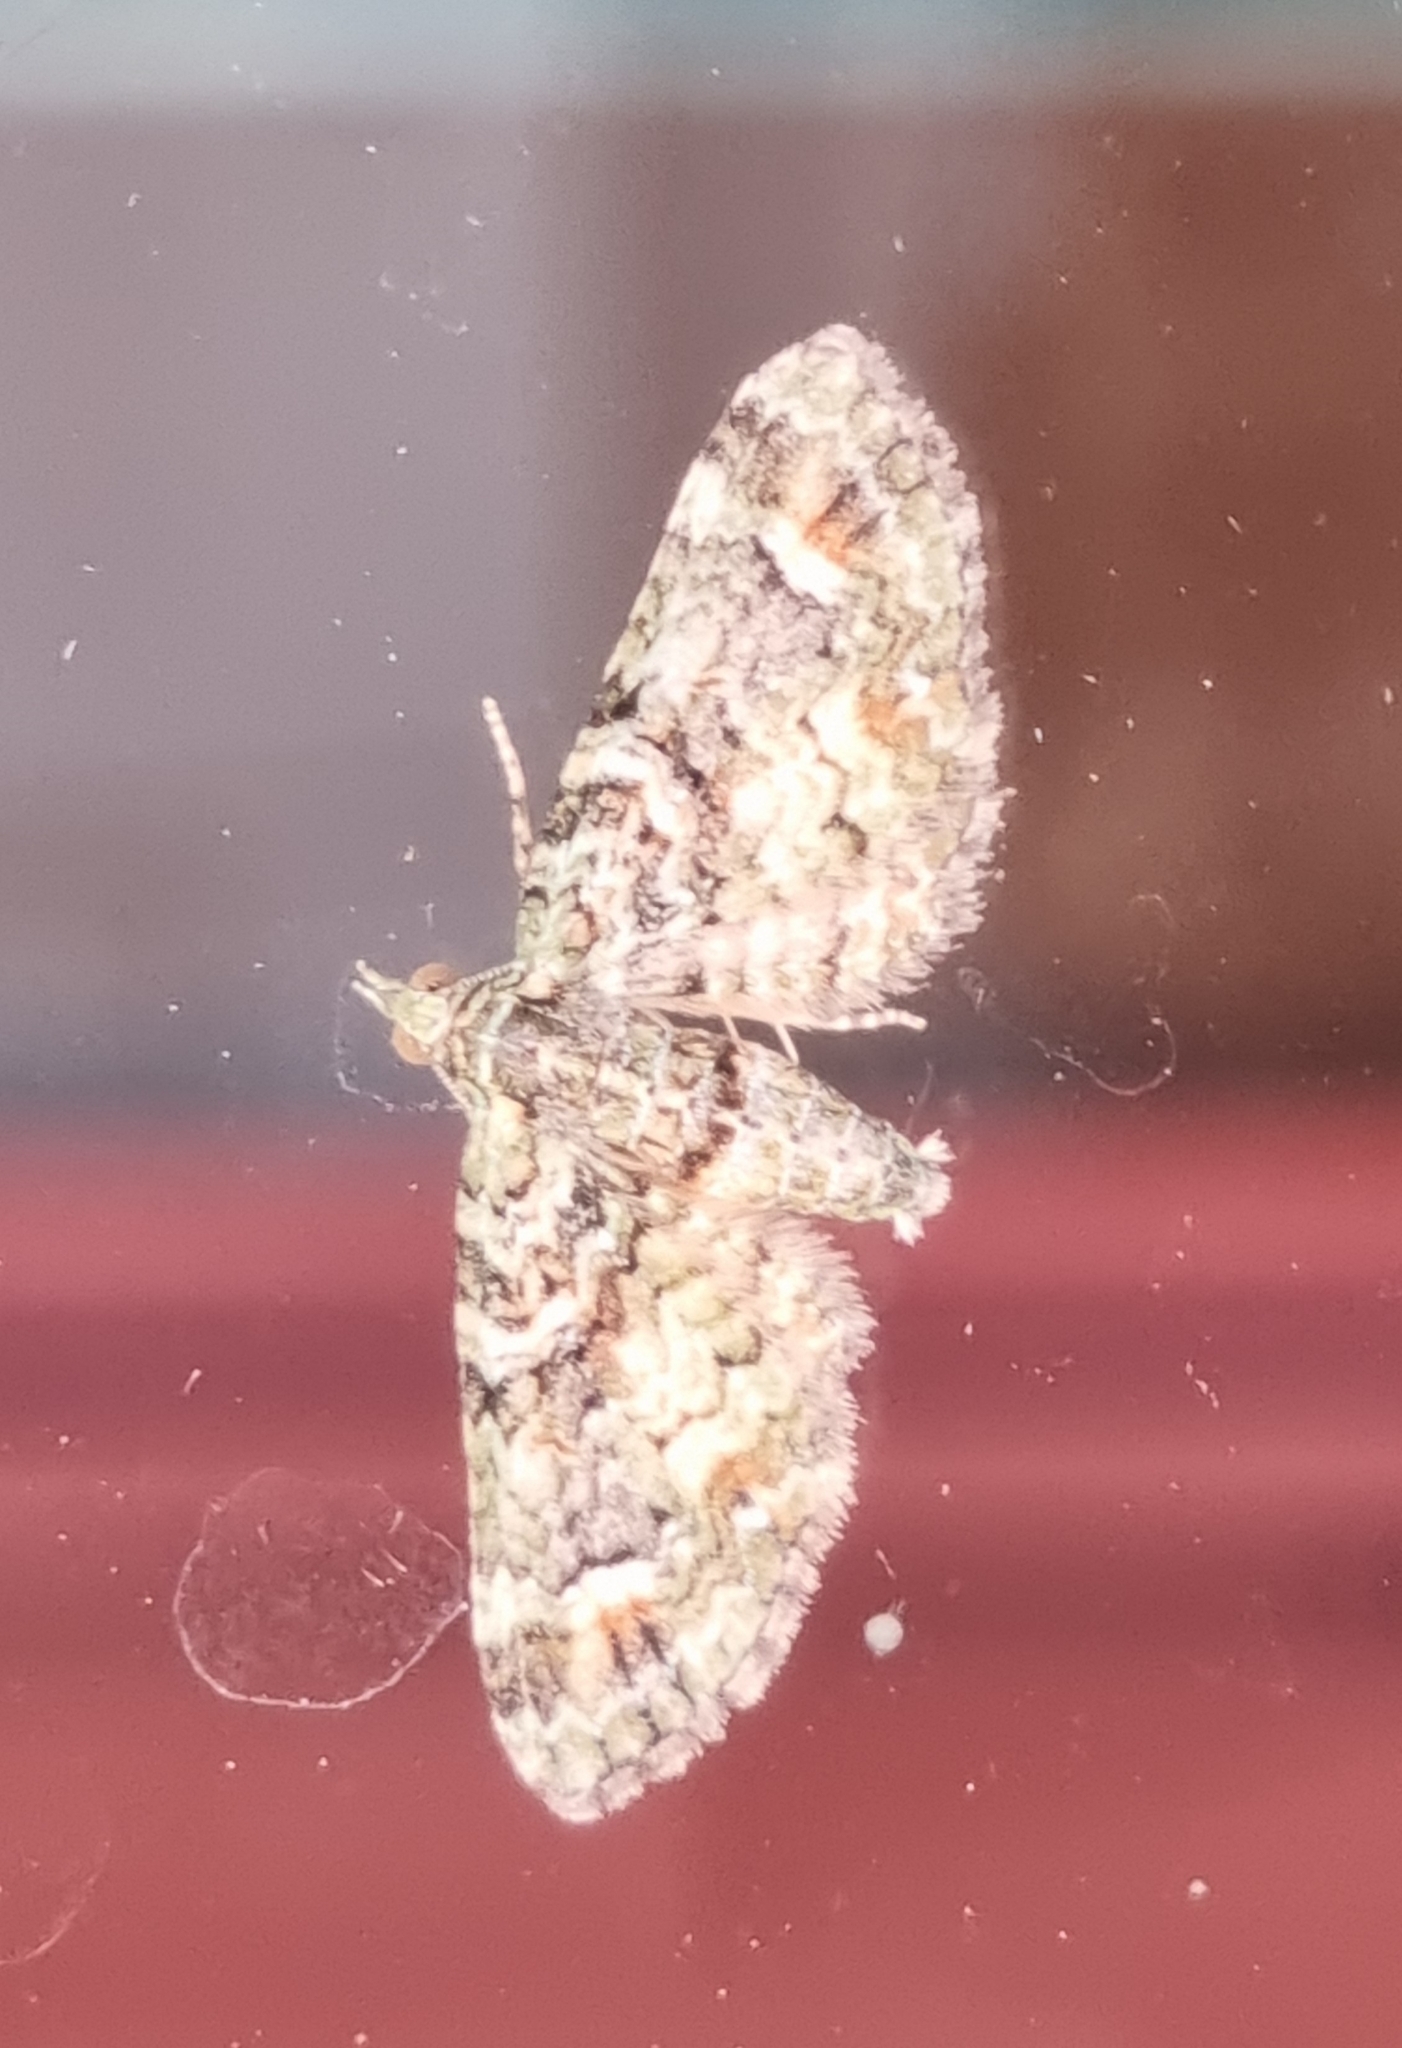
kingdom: Animalia
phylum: Arthropoda
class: Insecta
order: Lepidoptera
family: Geometridae
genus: Idaea
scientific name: Idaea mutanda
